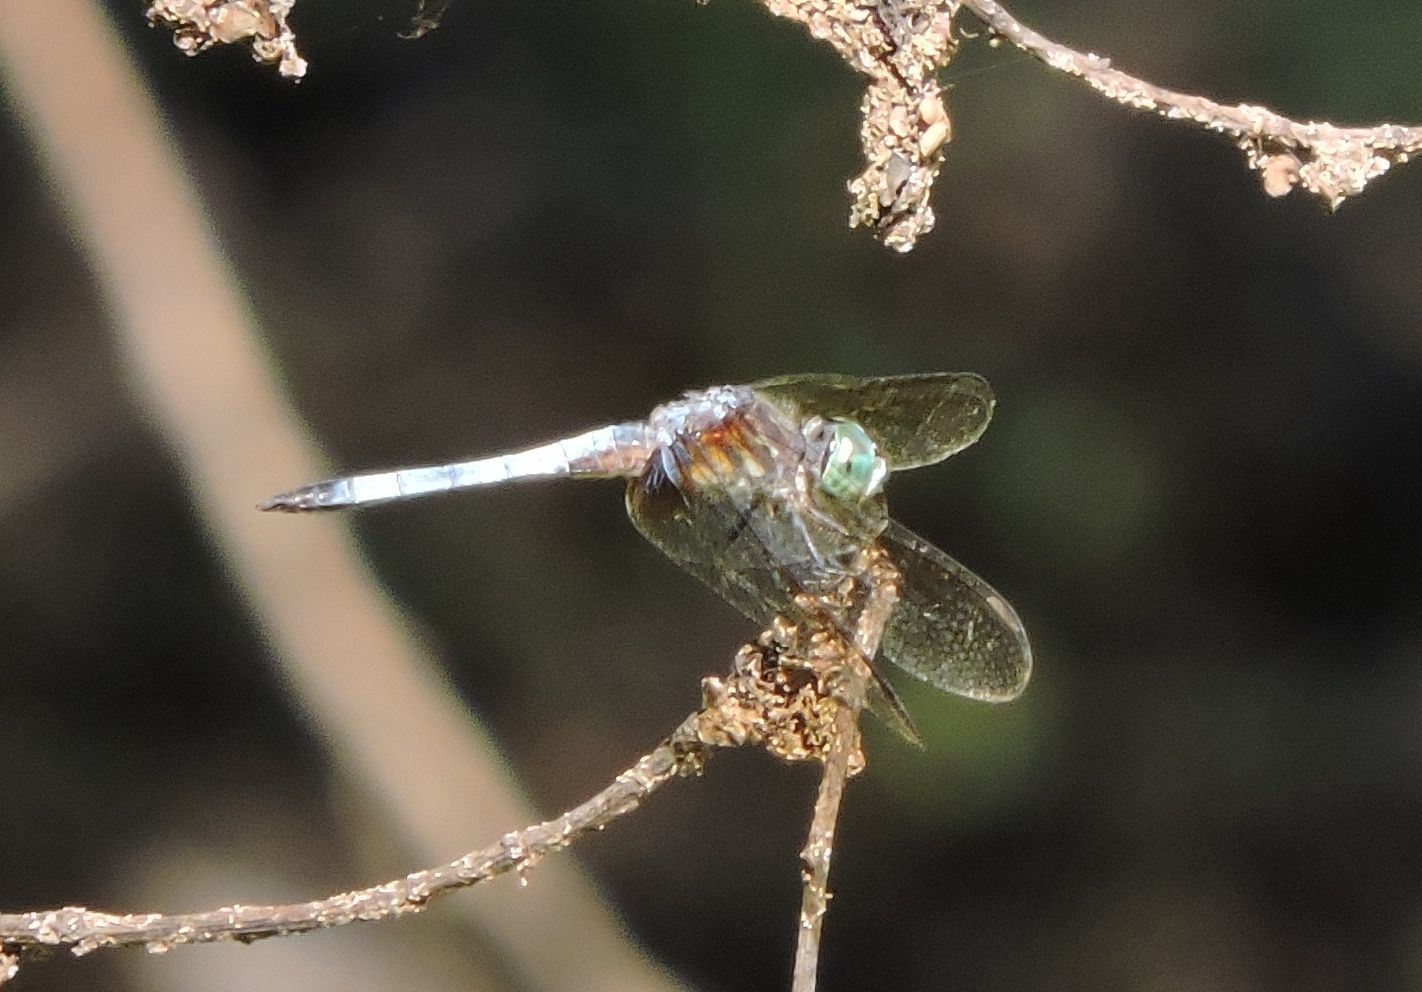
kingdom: Animalia
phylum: Arthropoda
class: Insecta
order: Odonata
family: Libellulidae
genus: Pachydiplax
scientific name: Pachydiplax longipennis
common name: Blue dasher
